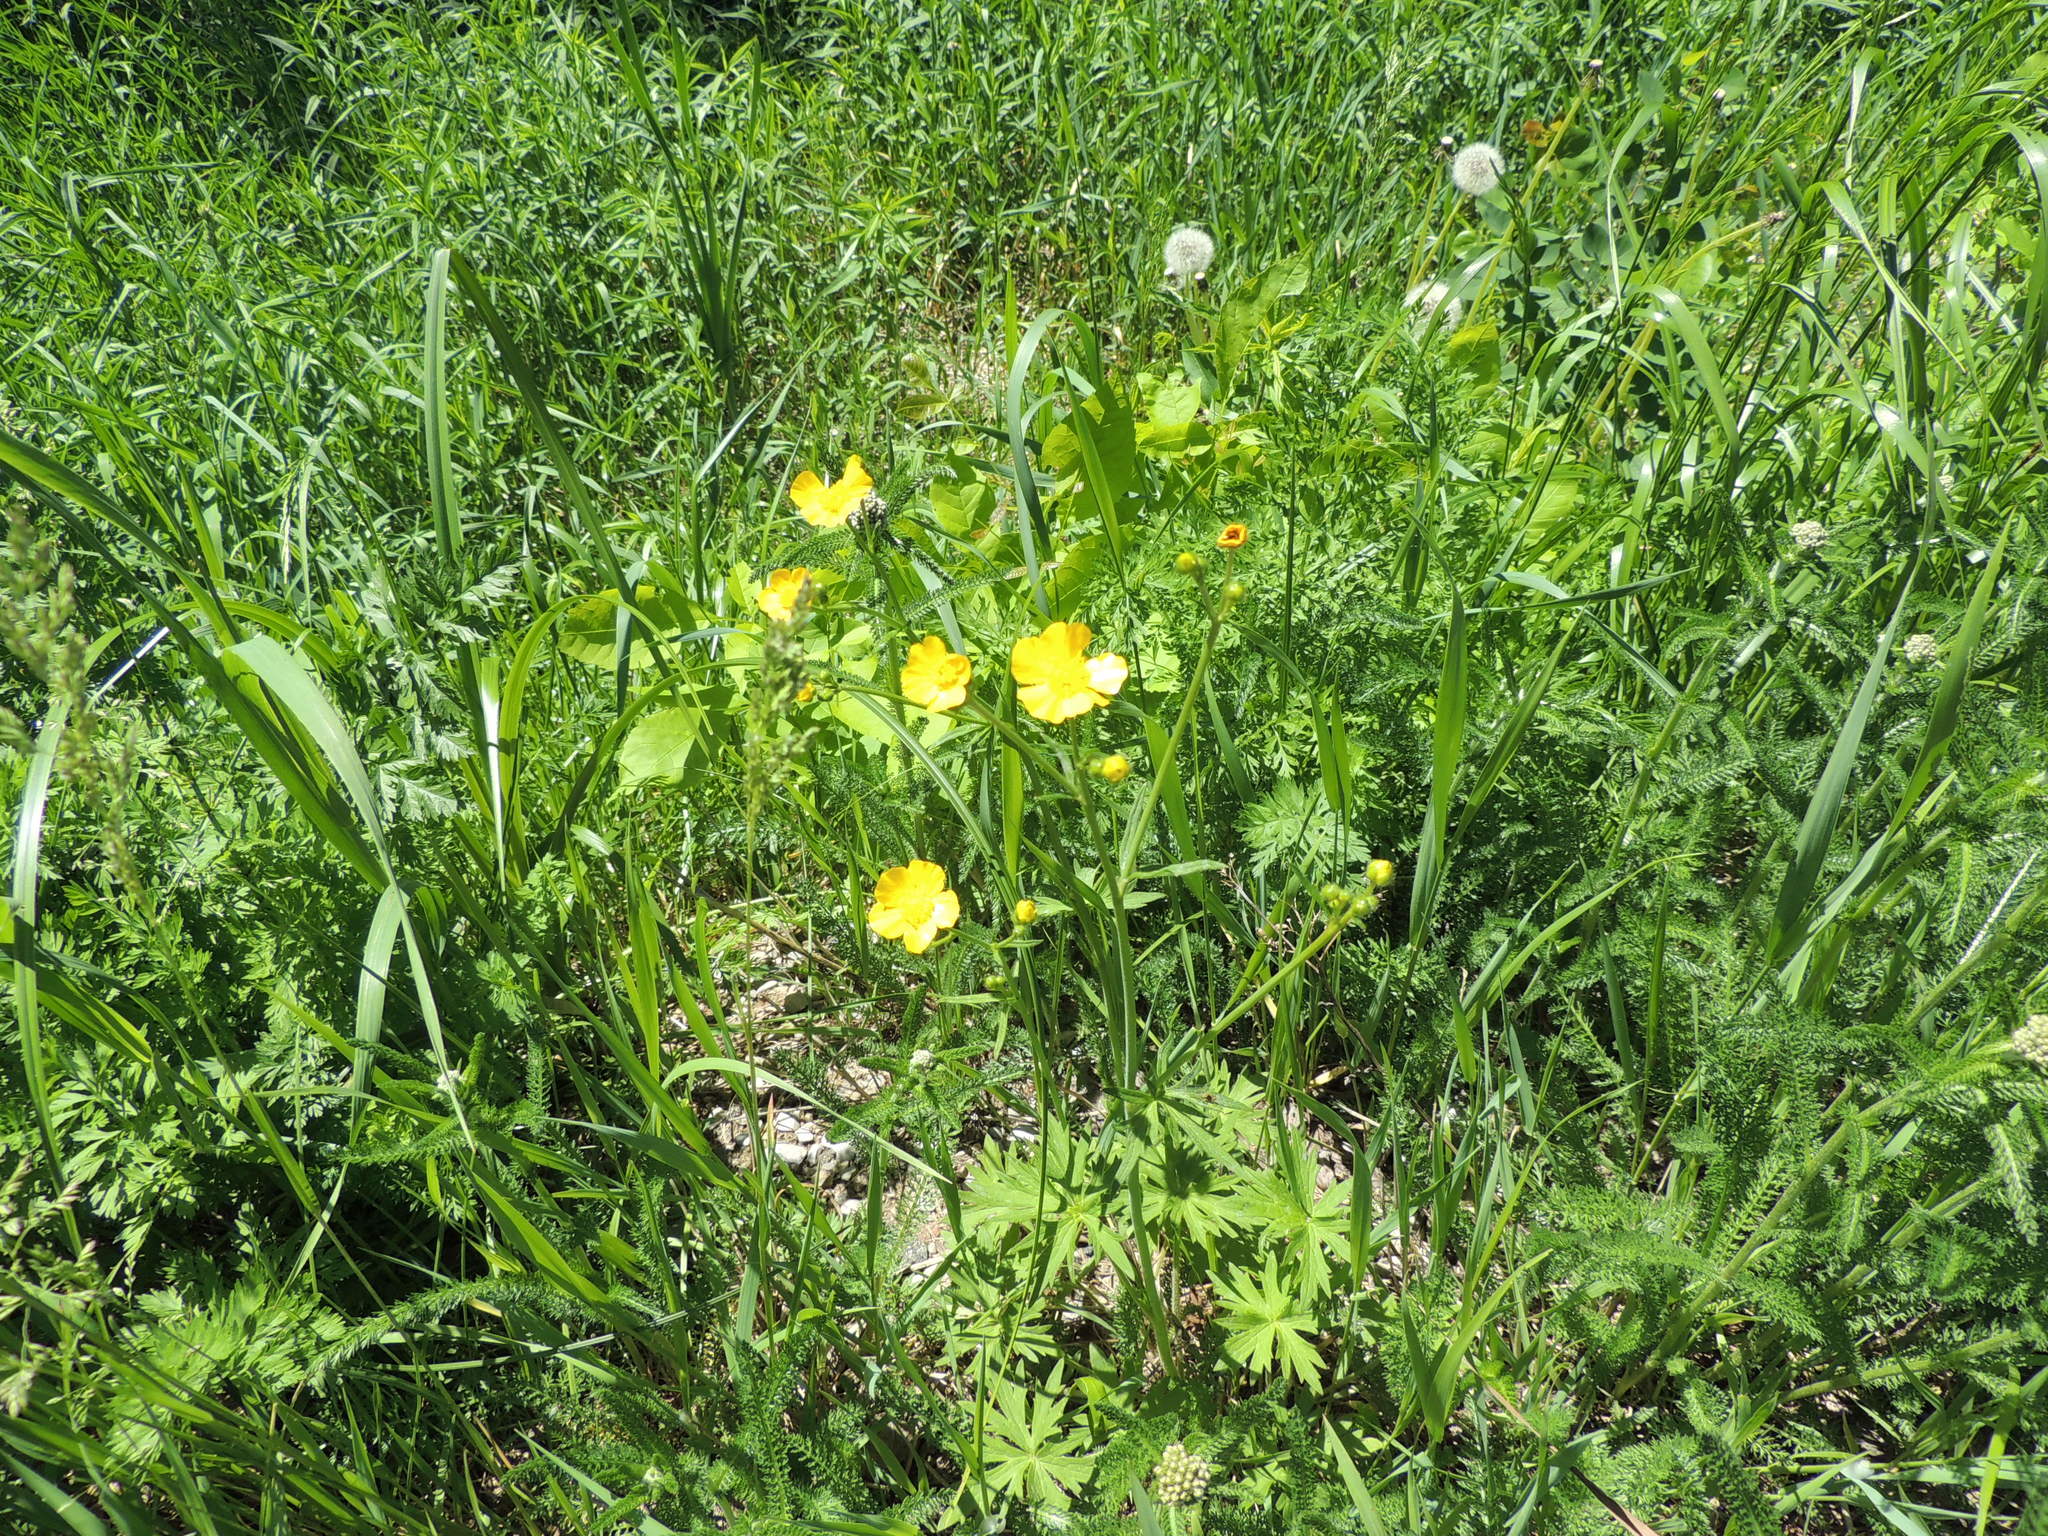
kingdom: Plantae
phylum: Tracheophyta
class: Magnoliopsida
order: Ranunculales
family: Ranunculaceae
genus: Ranunculus
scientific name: Ranunculus acris
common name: Meadow buttercup
